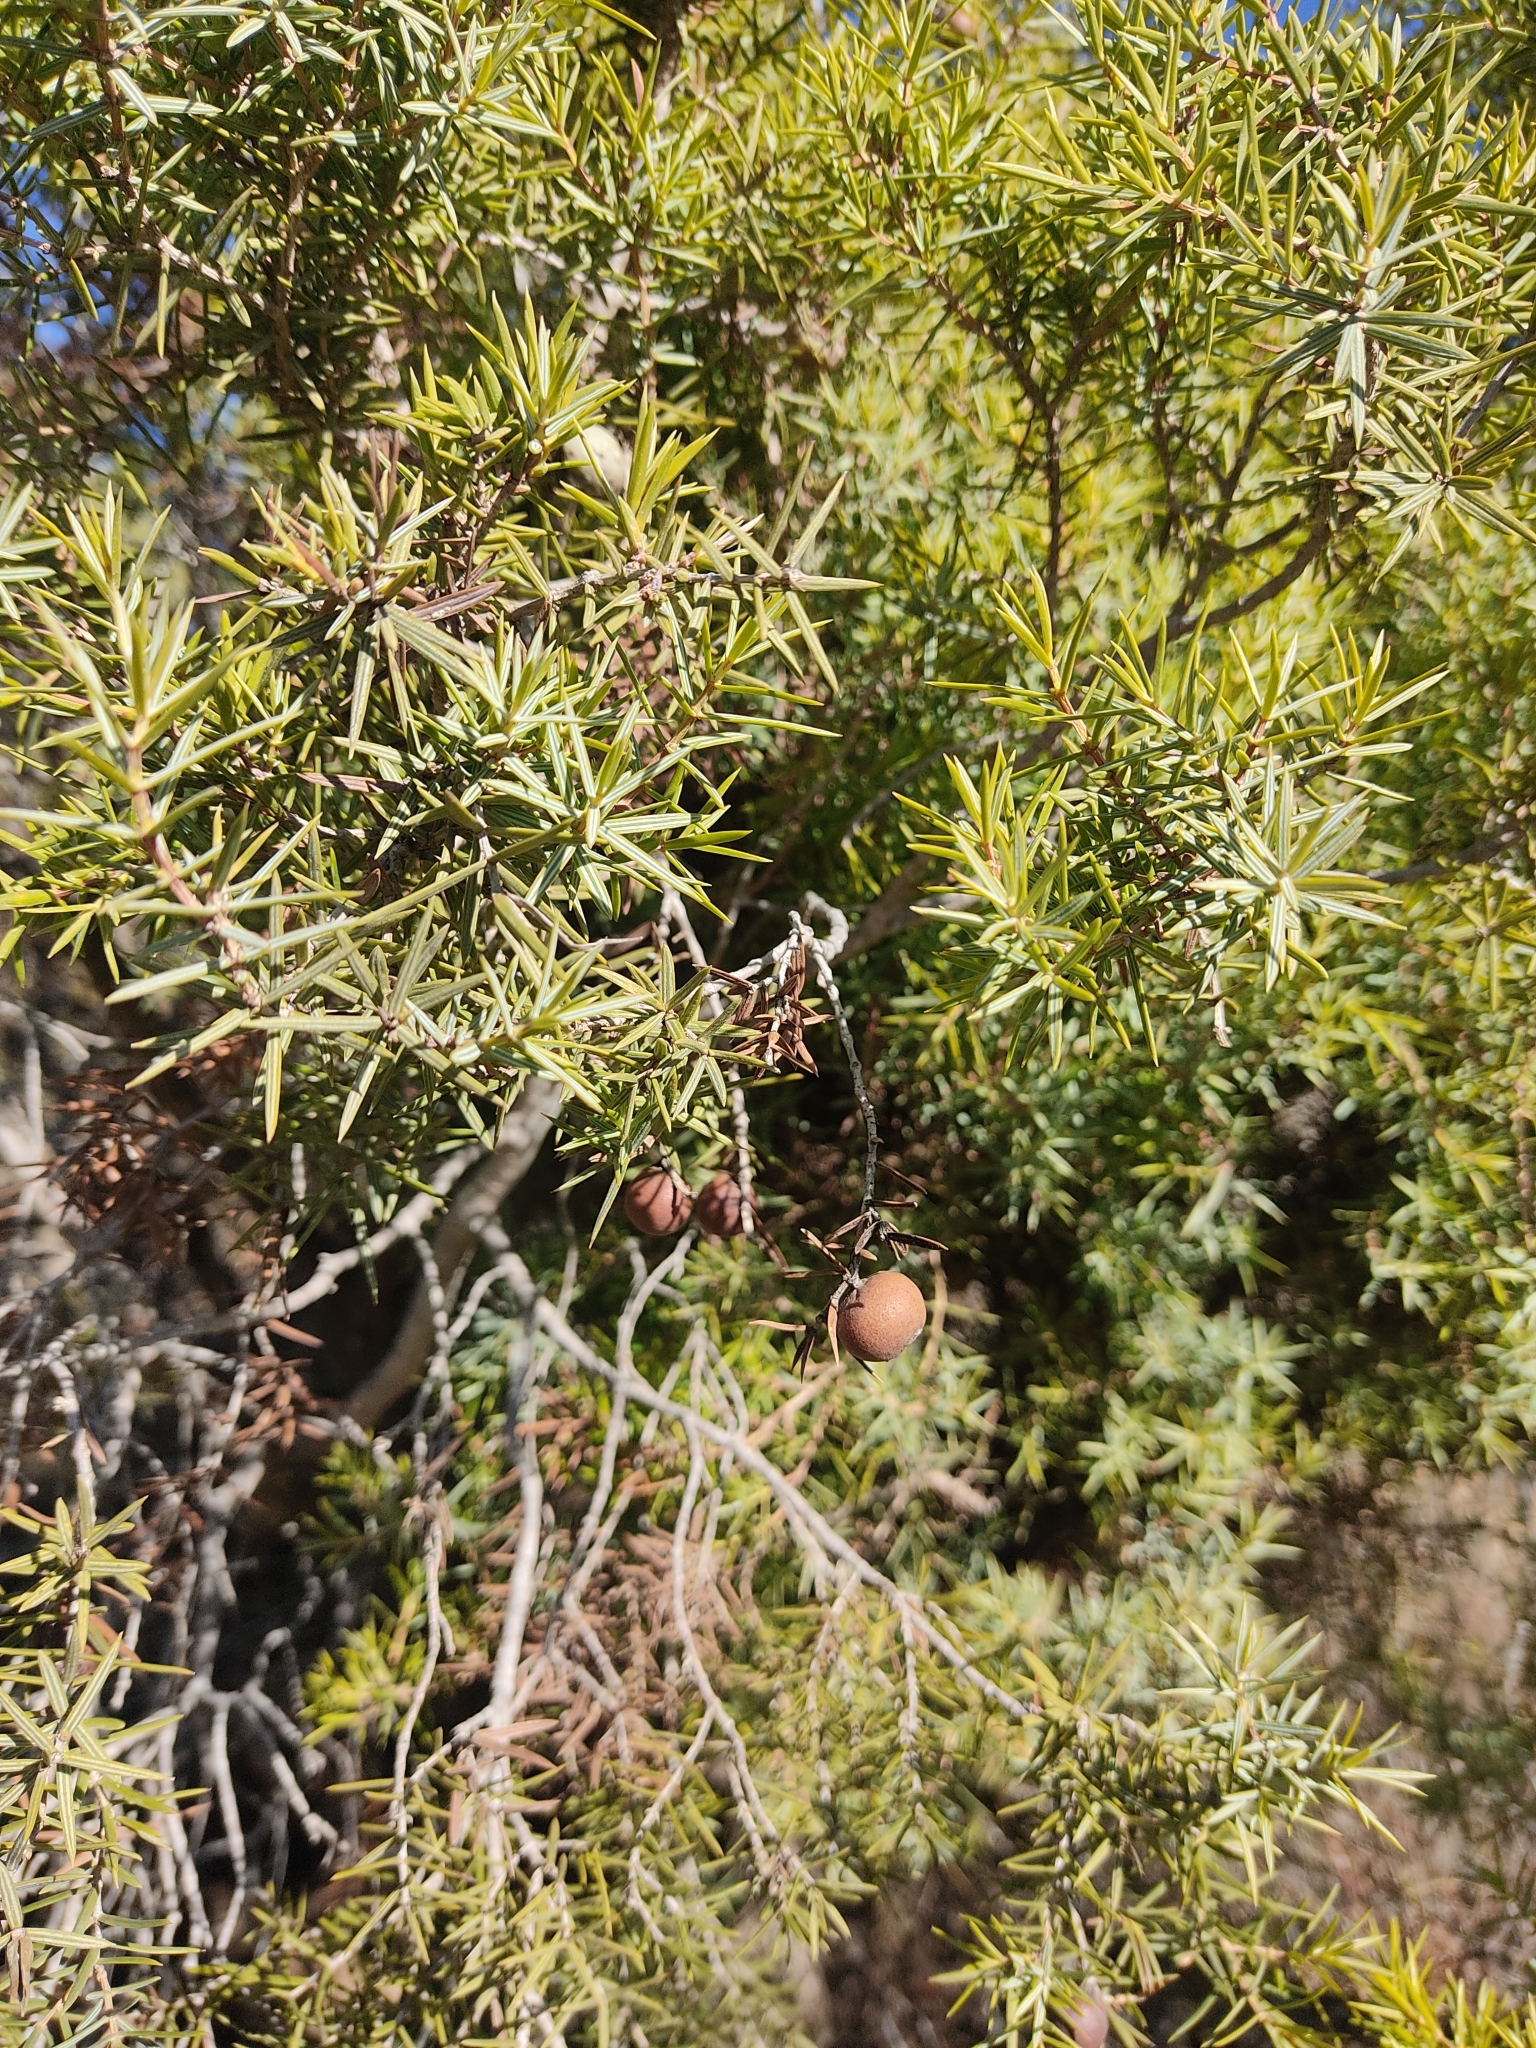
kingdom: Plantae
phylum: Tracheophyta
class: Pinopsida
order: Pinales
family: Cupressaceae
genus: Juniperus
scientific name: Juniperus oxycedrus
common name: Prickly juniper
